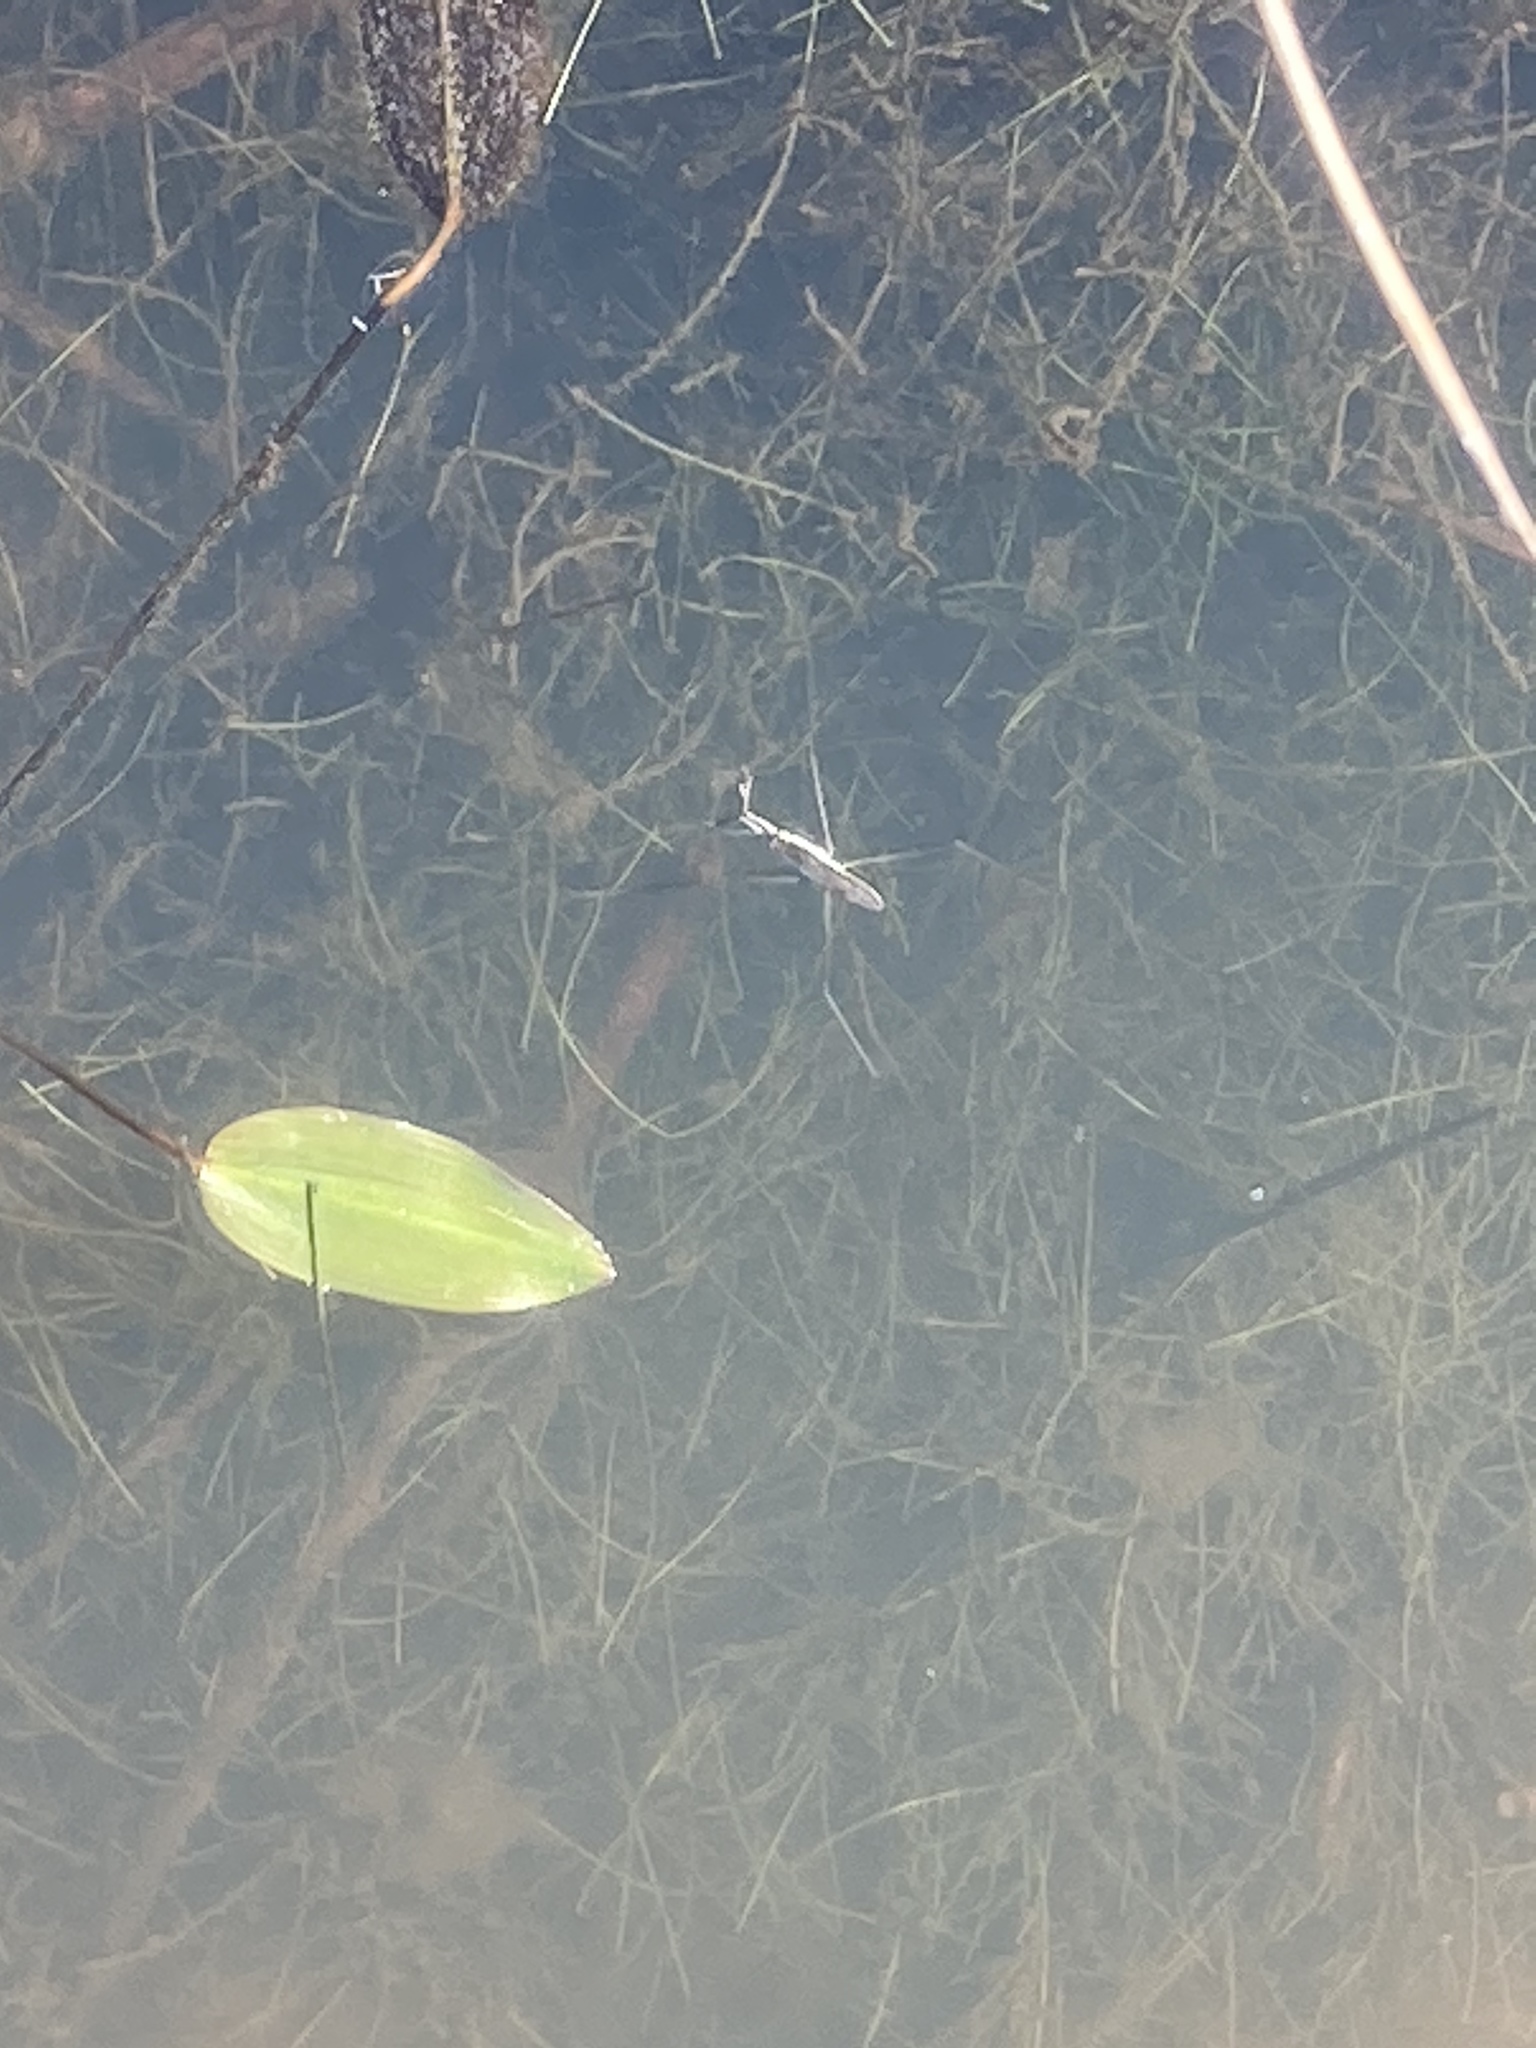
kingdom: Plantae
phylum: Tracheophyta
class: Liliopsida
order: Alismatales
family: Potamogetonaceae
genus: Potamogeton
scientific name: Potamogeton natans
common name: Broad-leaved pondweed
